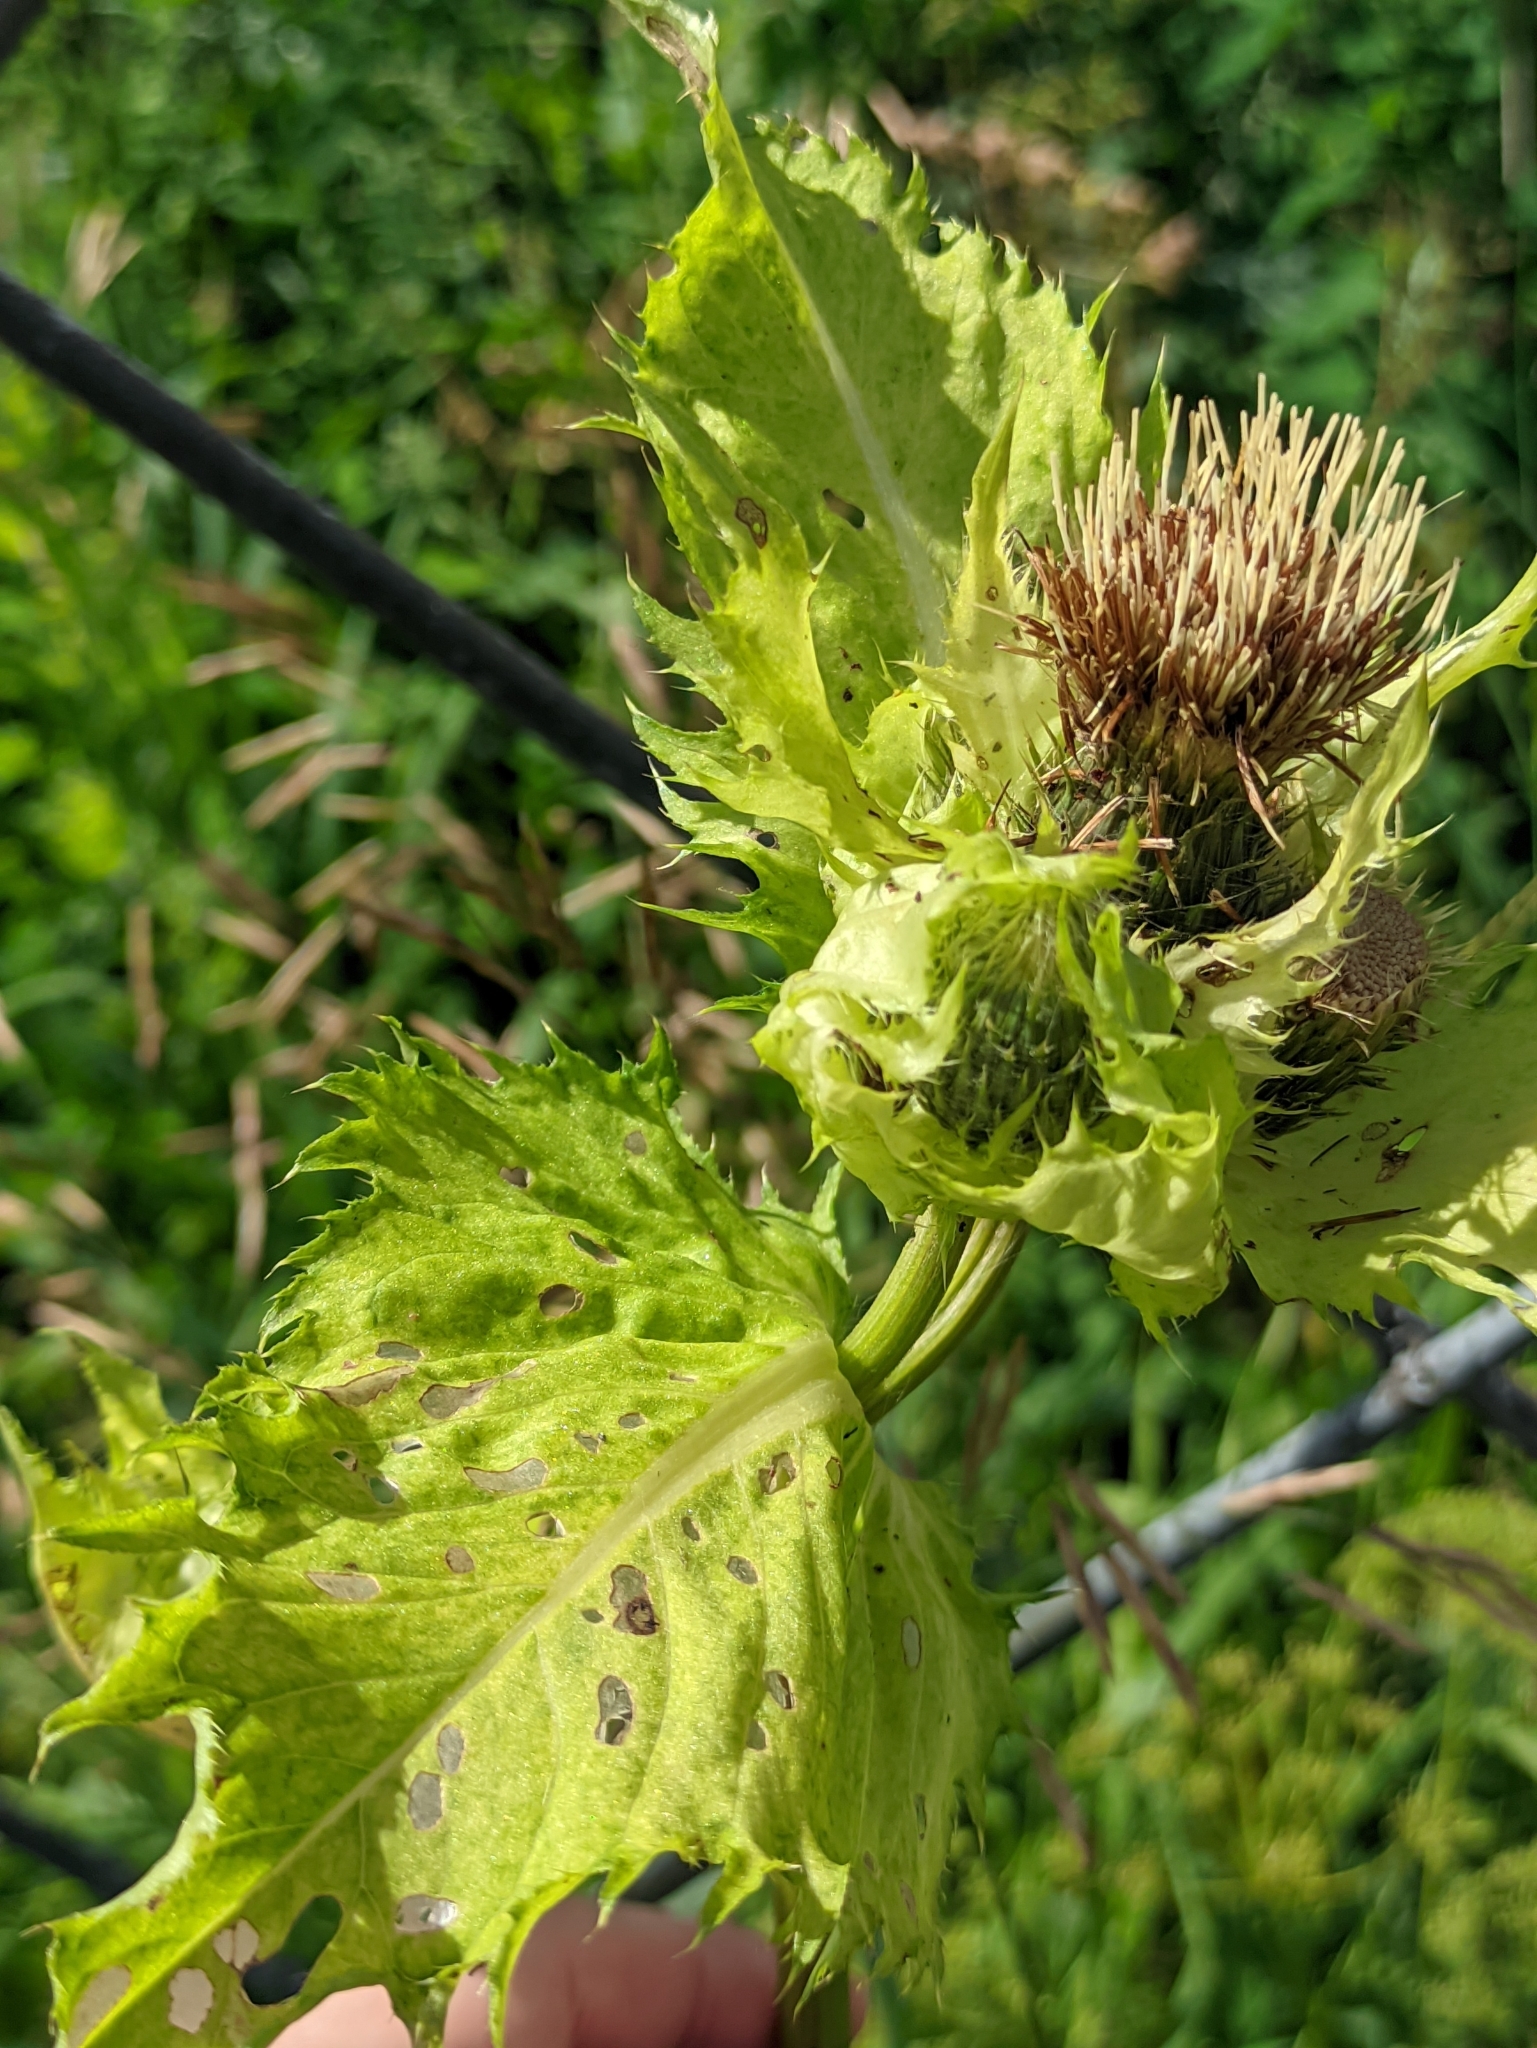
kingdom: Plantae
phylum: Tracheophyta
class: Magnoliopsida
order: Asterales
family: Asteraceae
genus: Cirsium
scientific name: Cirsium oleraceum
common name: Cabbage thistle
